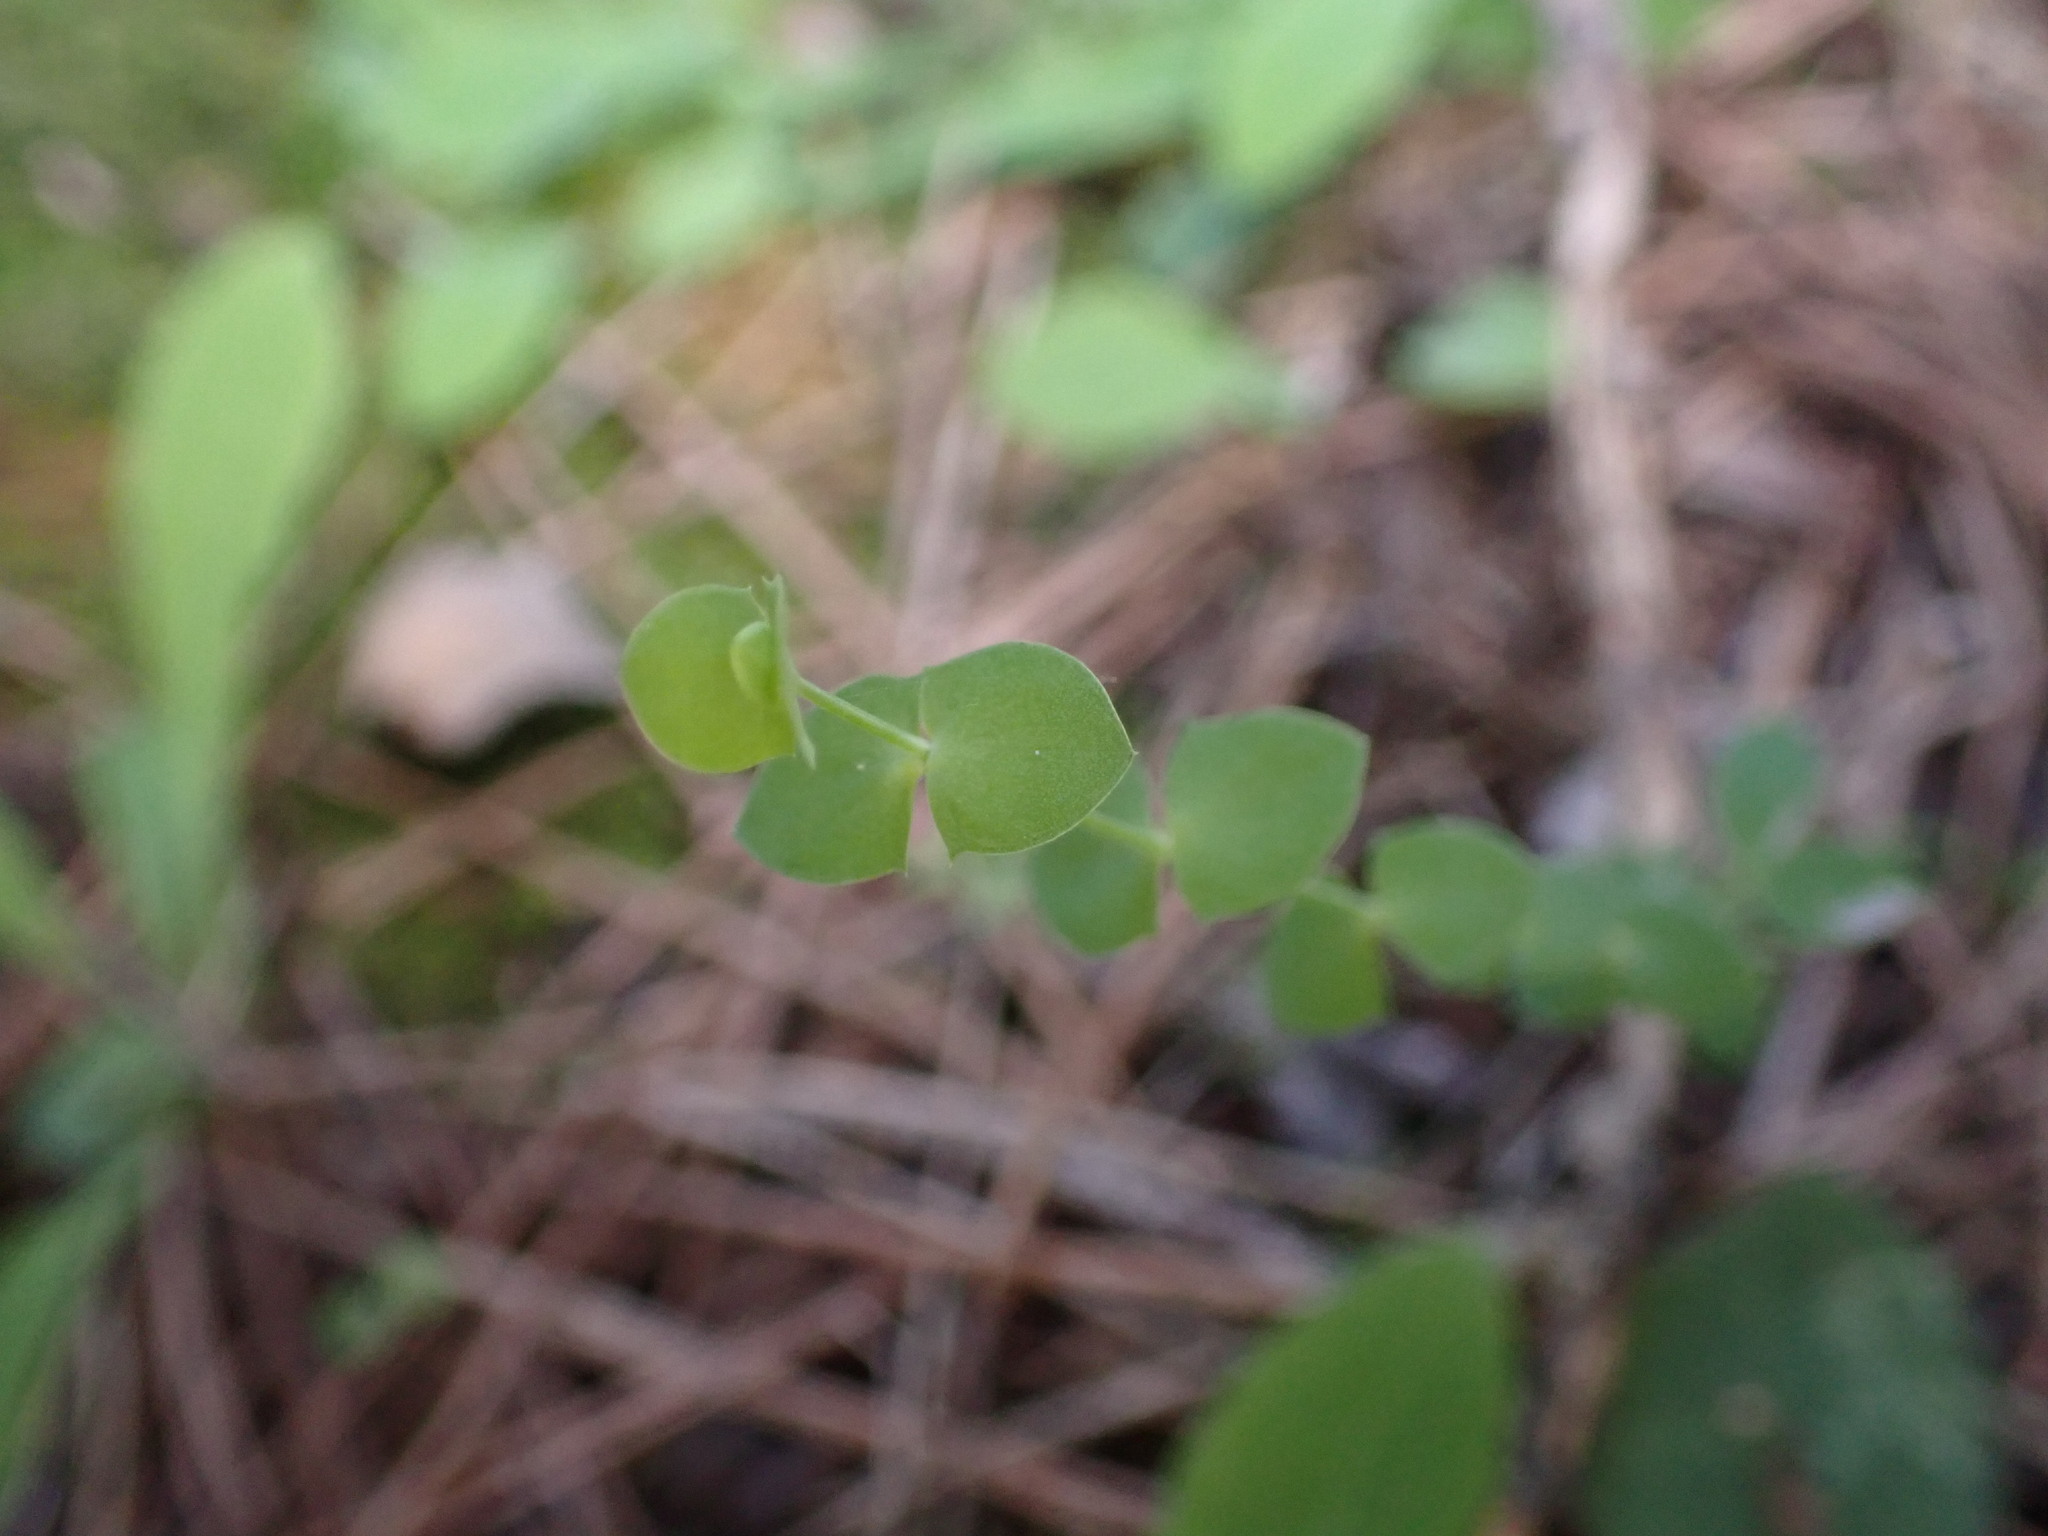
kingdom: Plantae
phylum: Tracheophyta
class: Magnoliopsida
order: Fabales
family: Fabaceae
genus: Lathyrus
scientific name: Lathyrus aphaca
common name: Yellow vetchling
